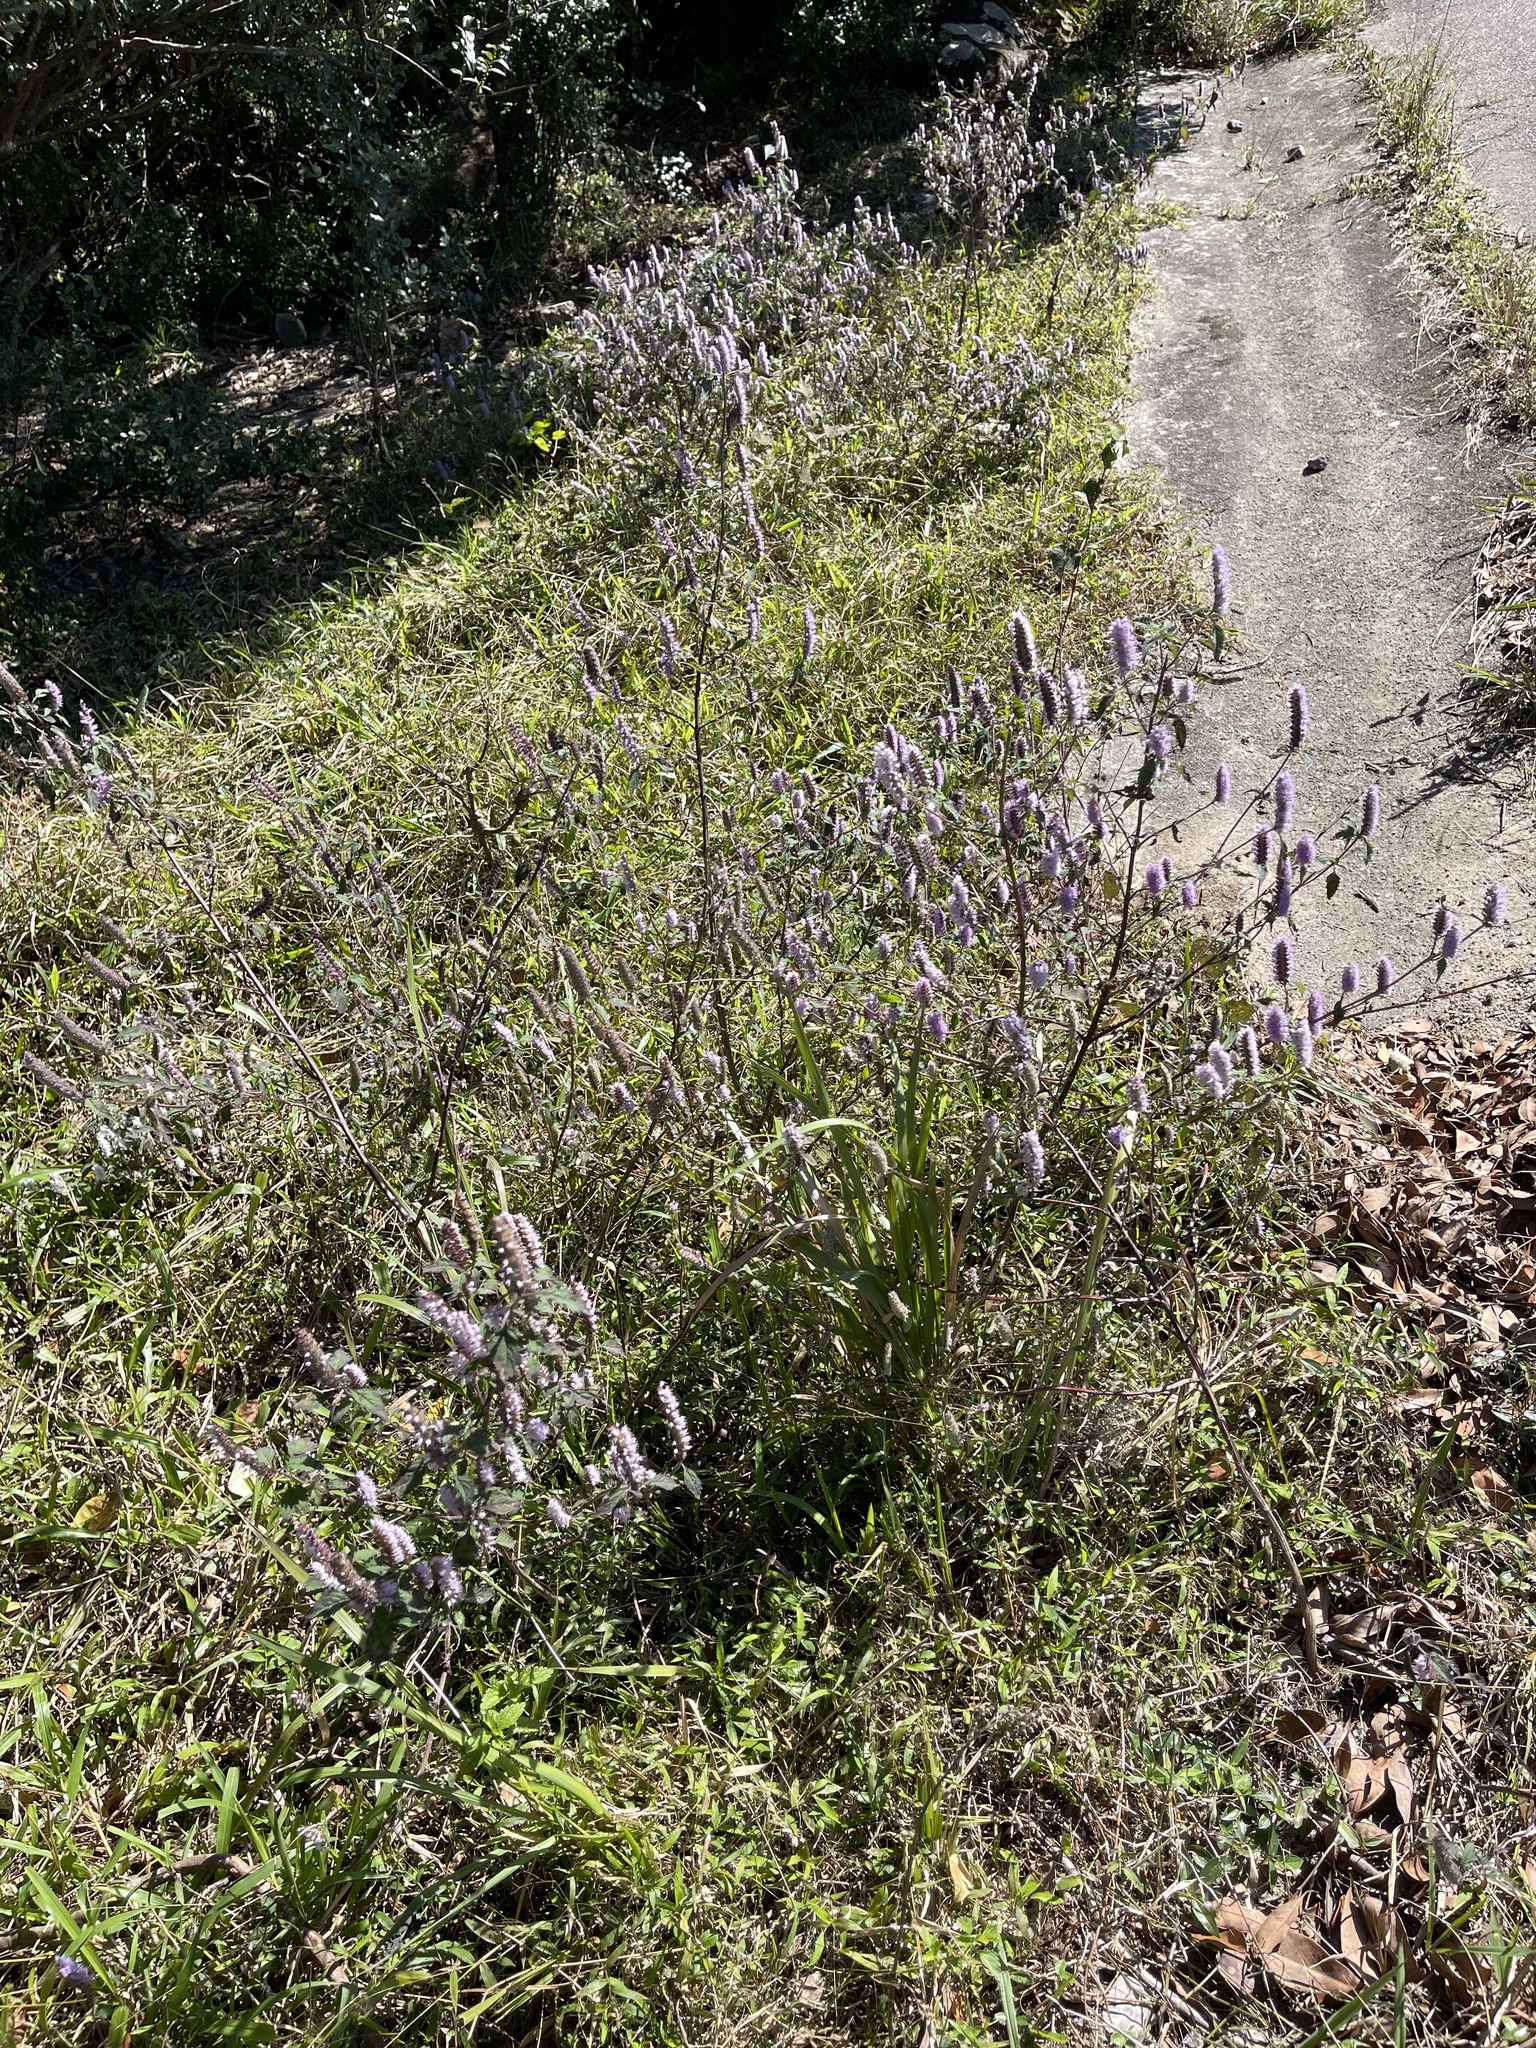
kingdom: Plantae
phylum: Tracheophyta
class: Magnoliopsida
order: Lamiales
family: Lamiaceae
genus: Elsholtzia
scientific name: Elsholtzia argyi
